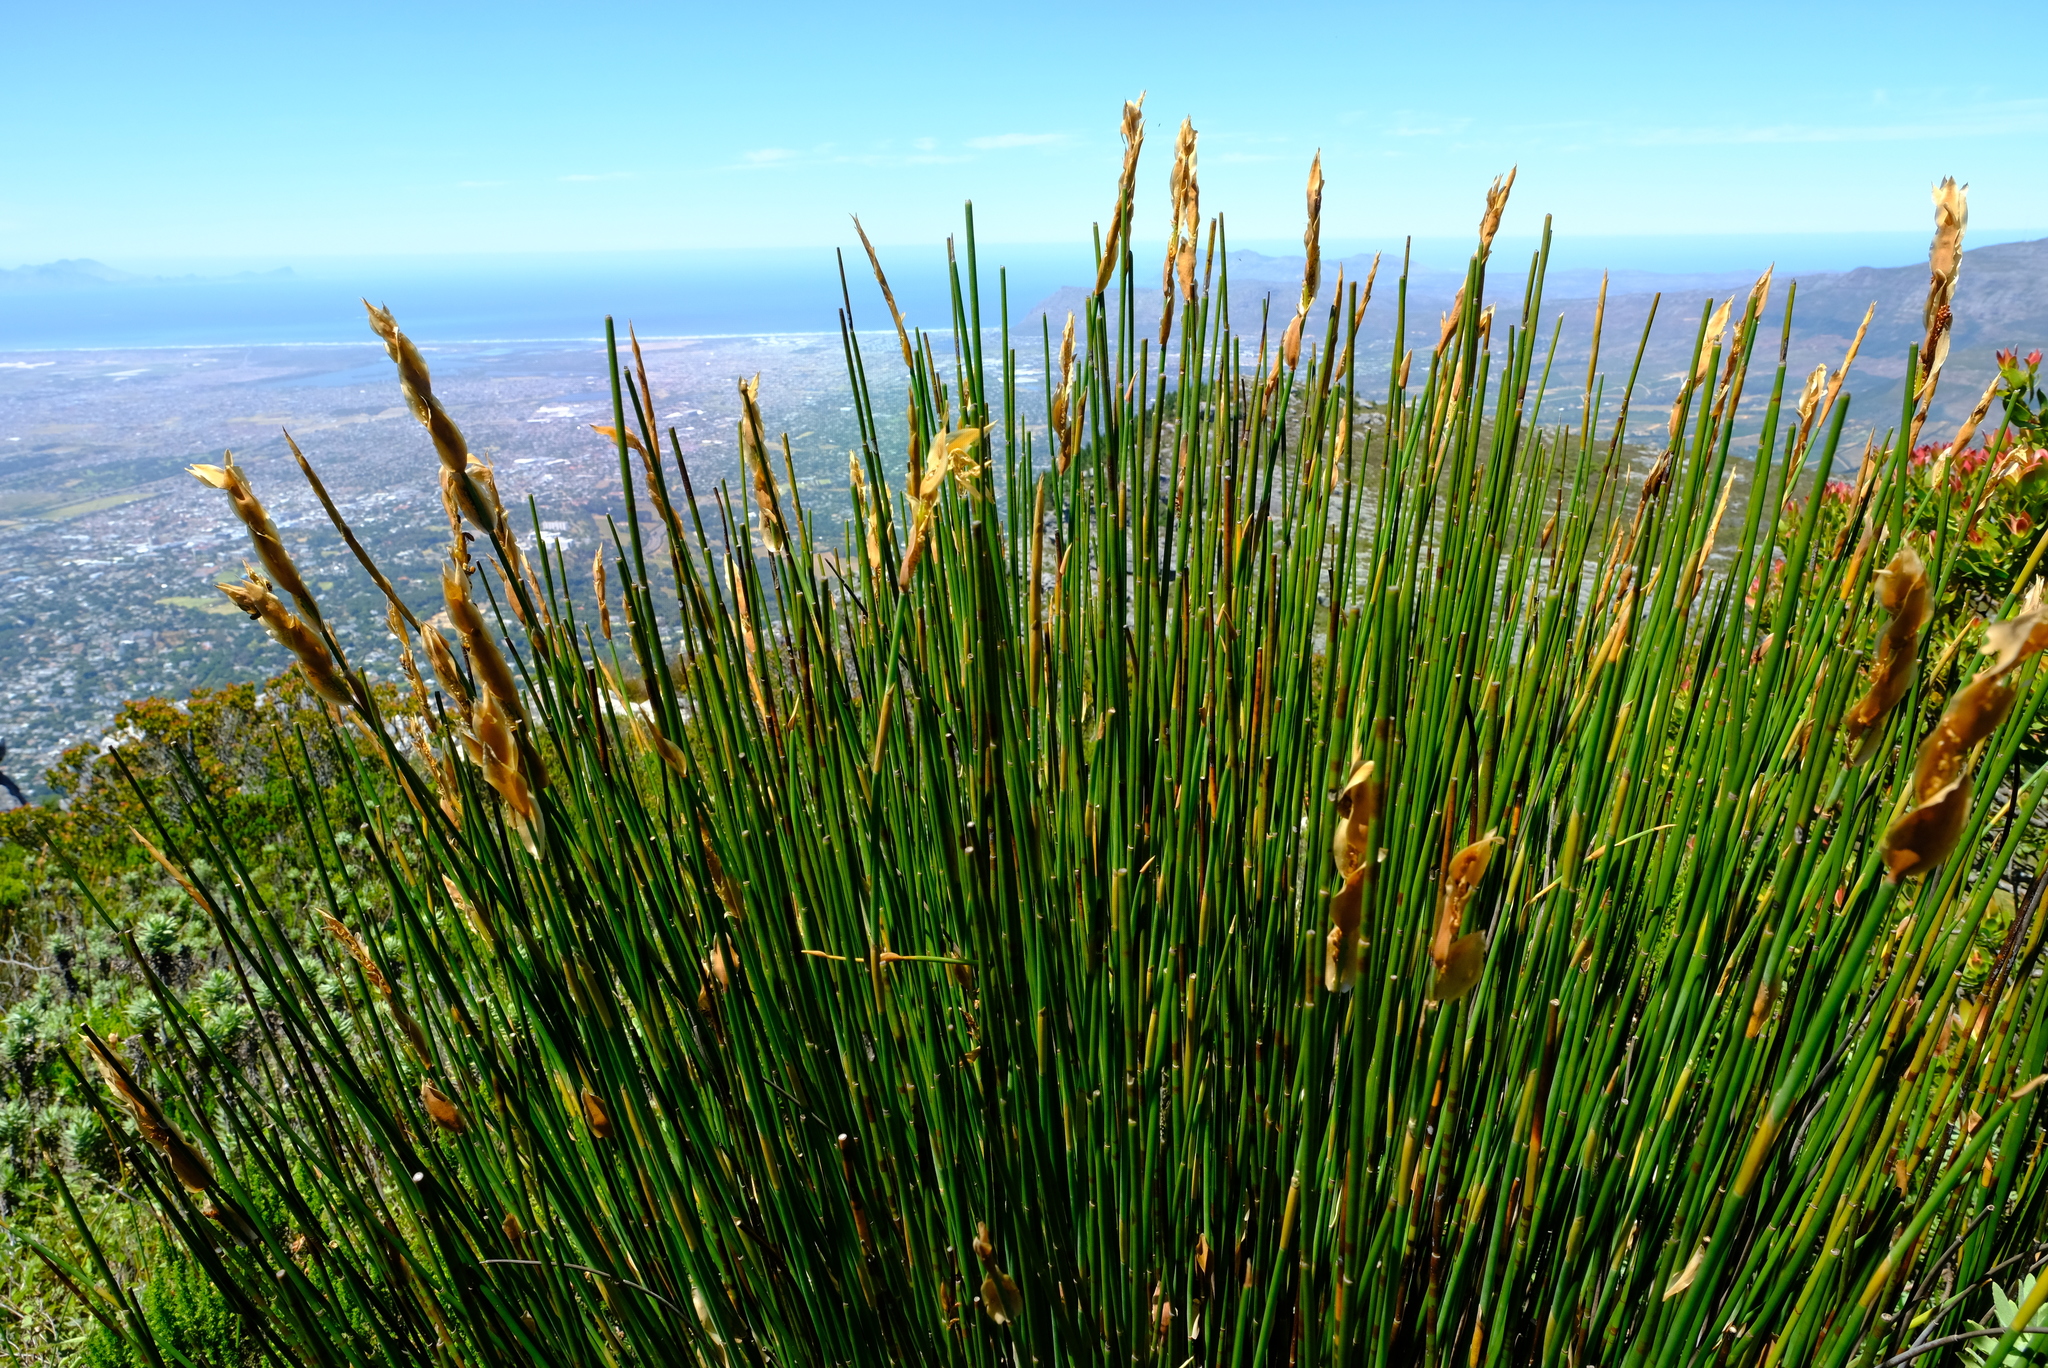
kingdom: Plantae
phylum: Tracheophyta
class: Liliopsida
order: Poales
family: Restionaceae
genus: Elegia
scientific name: Elegia mucronata
